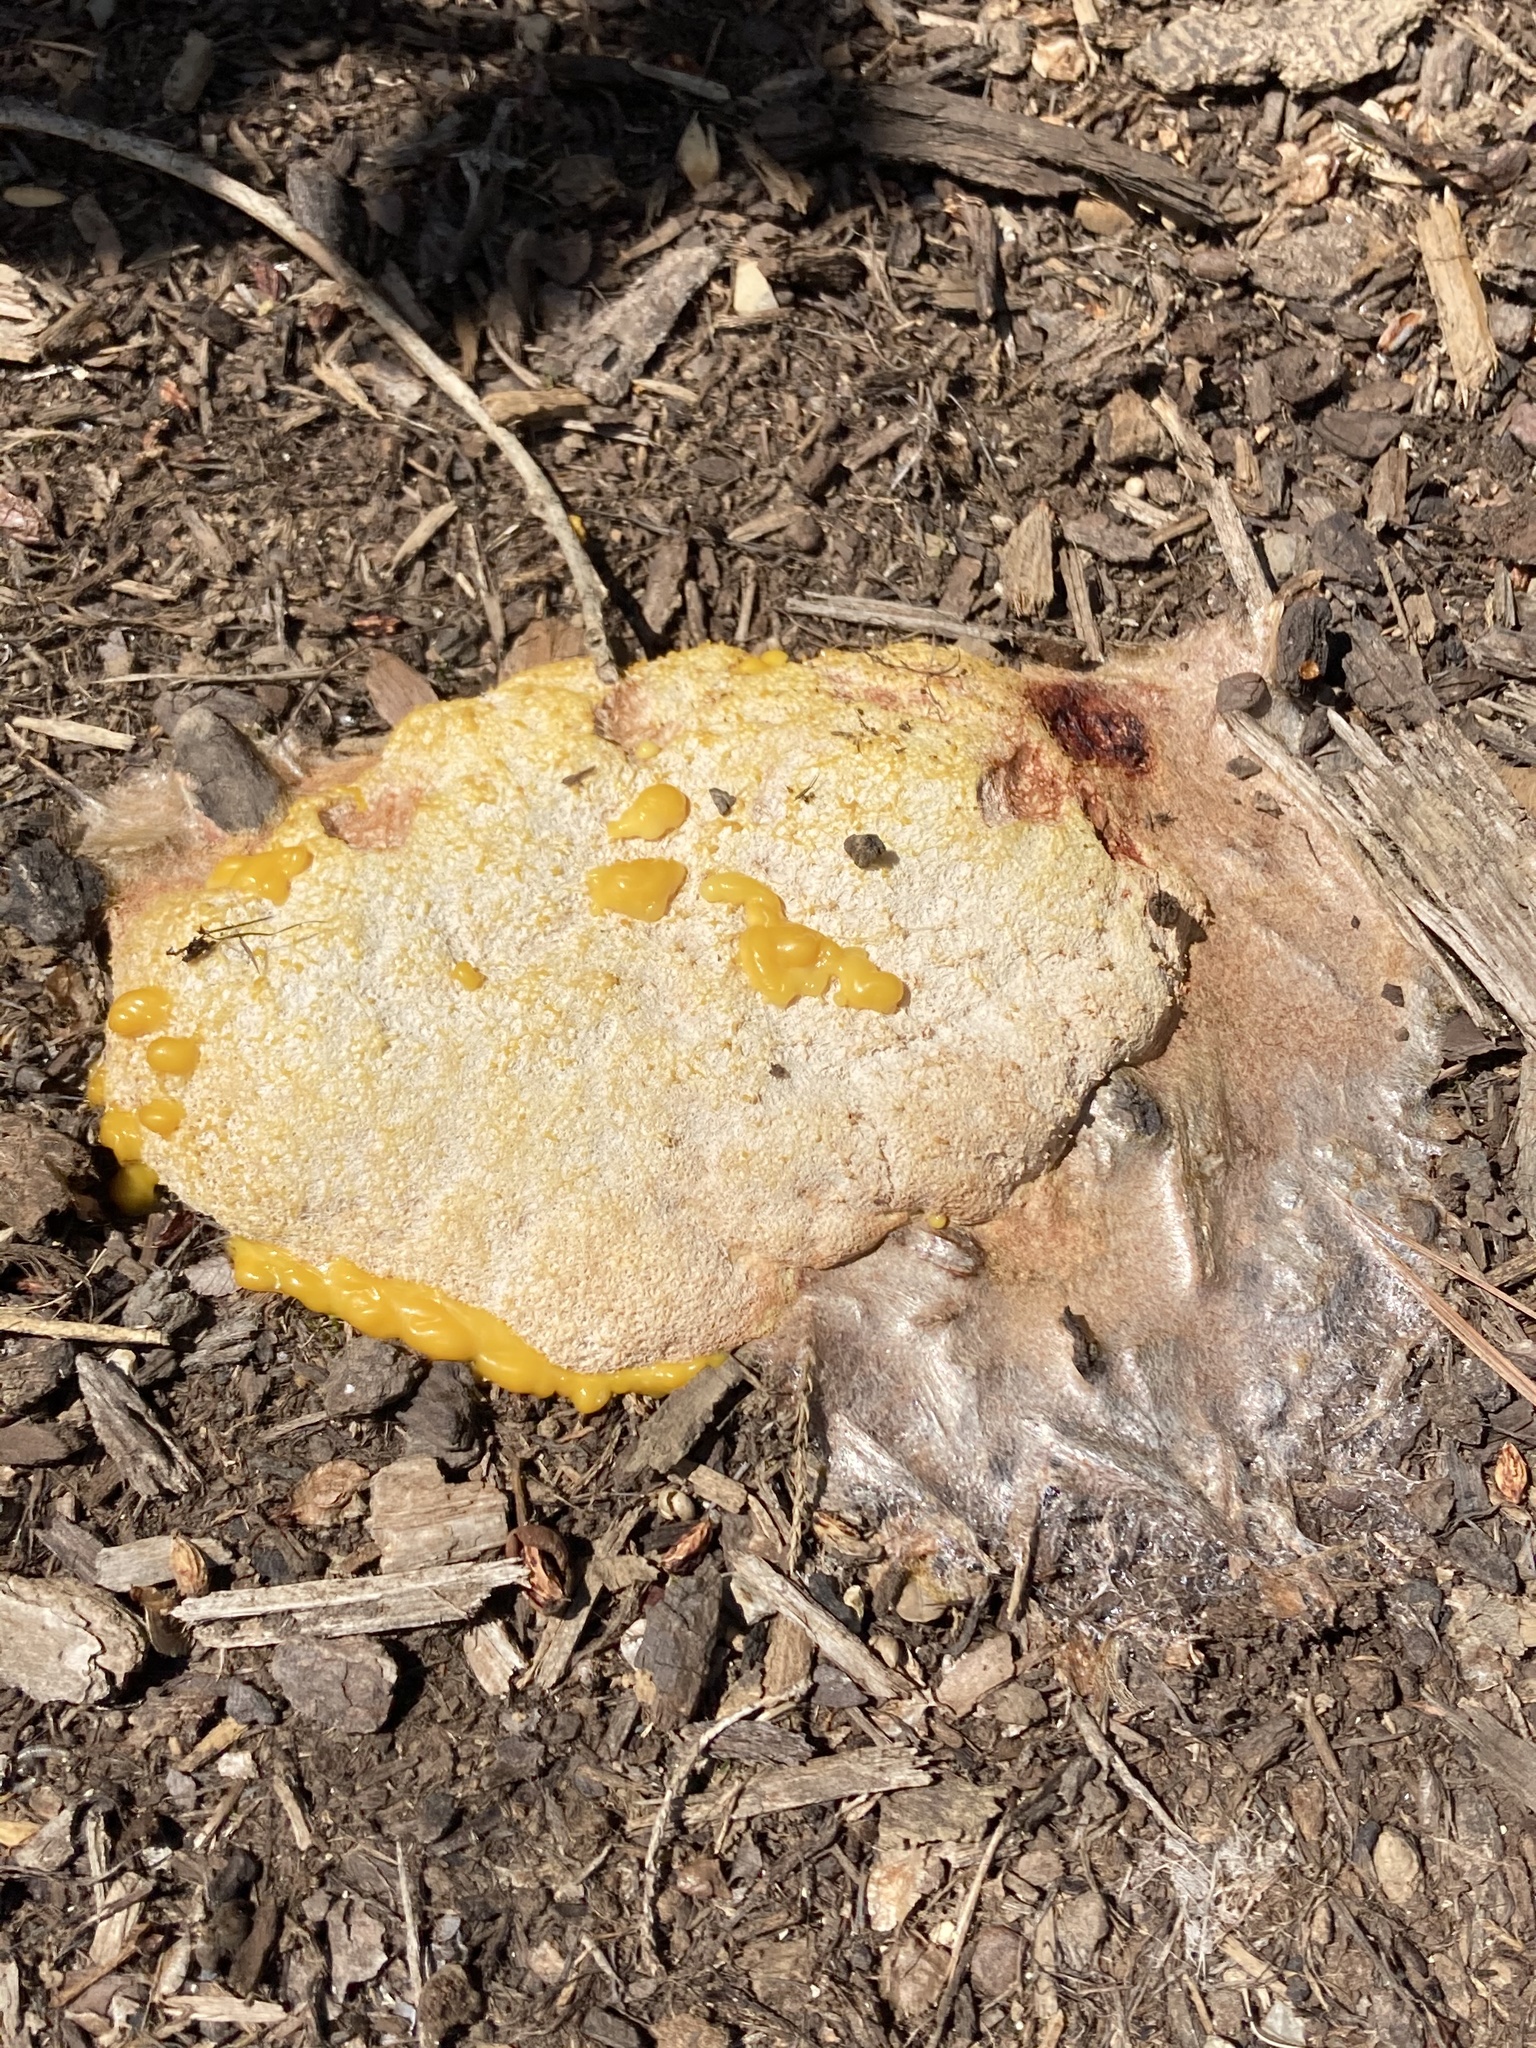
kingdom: Protozoa
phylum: Mycetozoa
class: Myxomycetes
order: Physarales
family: Physaraceae
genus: Fuligo
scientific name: Fuligo septica
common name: Dog vomit slime mold
